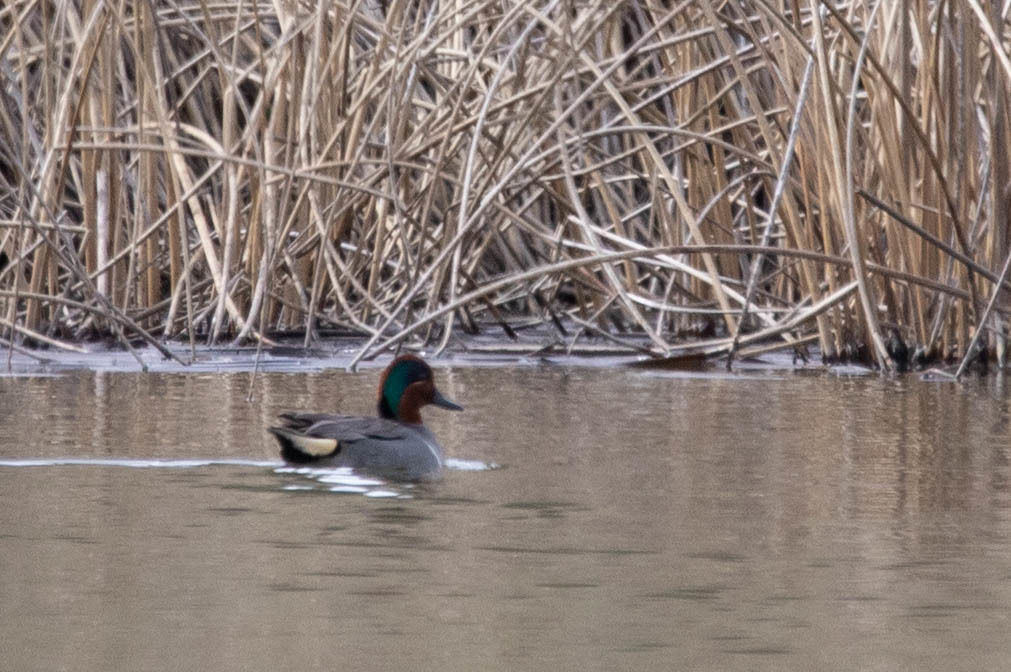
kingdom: Animalia
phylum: Chordata
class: Aves
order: Anseriformes
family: Anatidae
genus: Anas
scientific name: Anas carolinensis
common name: Green-winged teal
